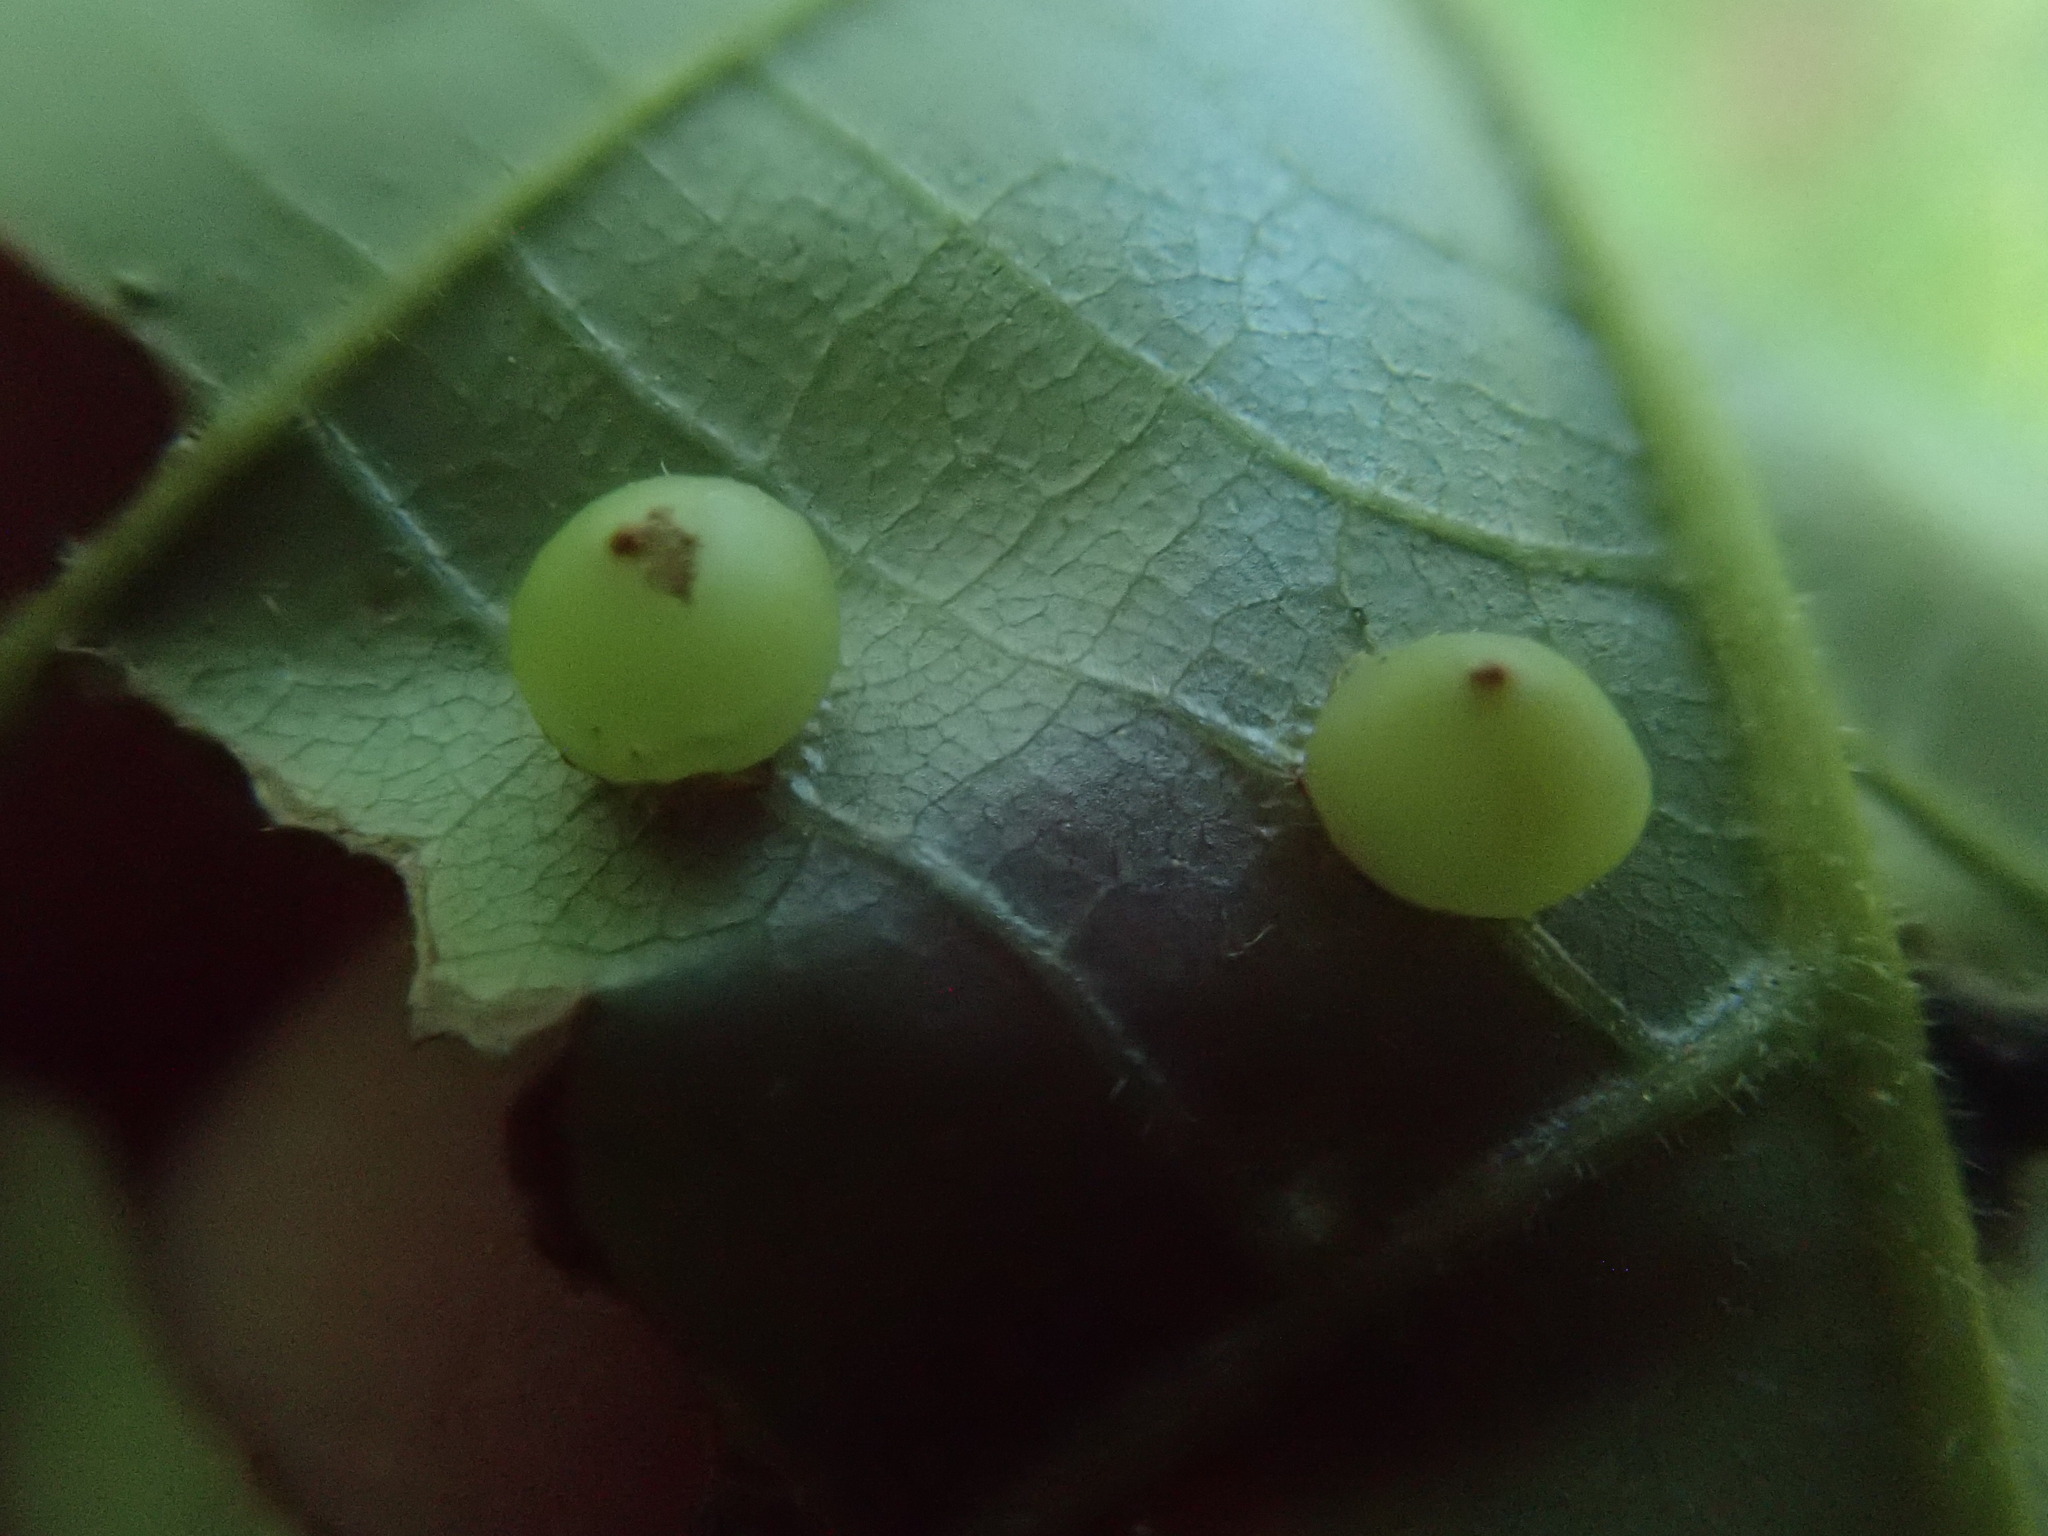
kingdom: Animalia
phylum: Arthropoda
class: Insecta
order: Diptera
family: Cecidomyiidae
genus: Caryomyia
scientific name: Caryomyia caryae
